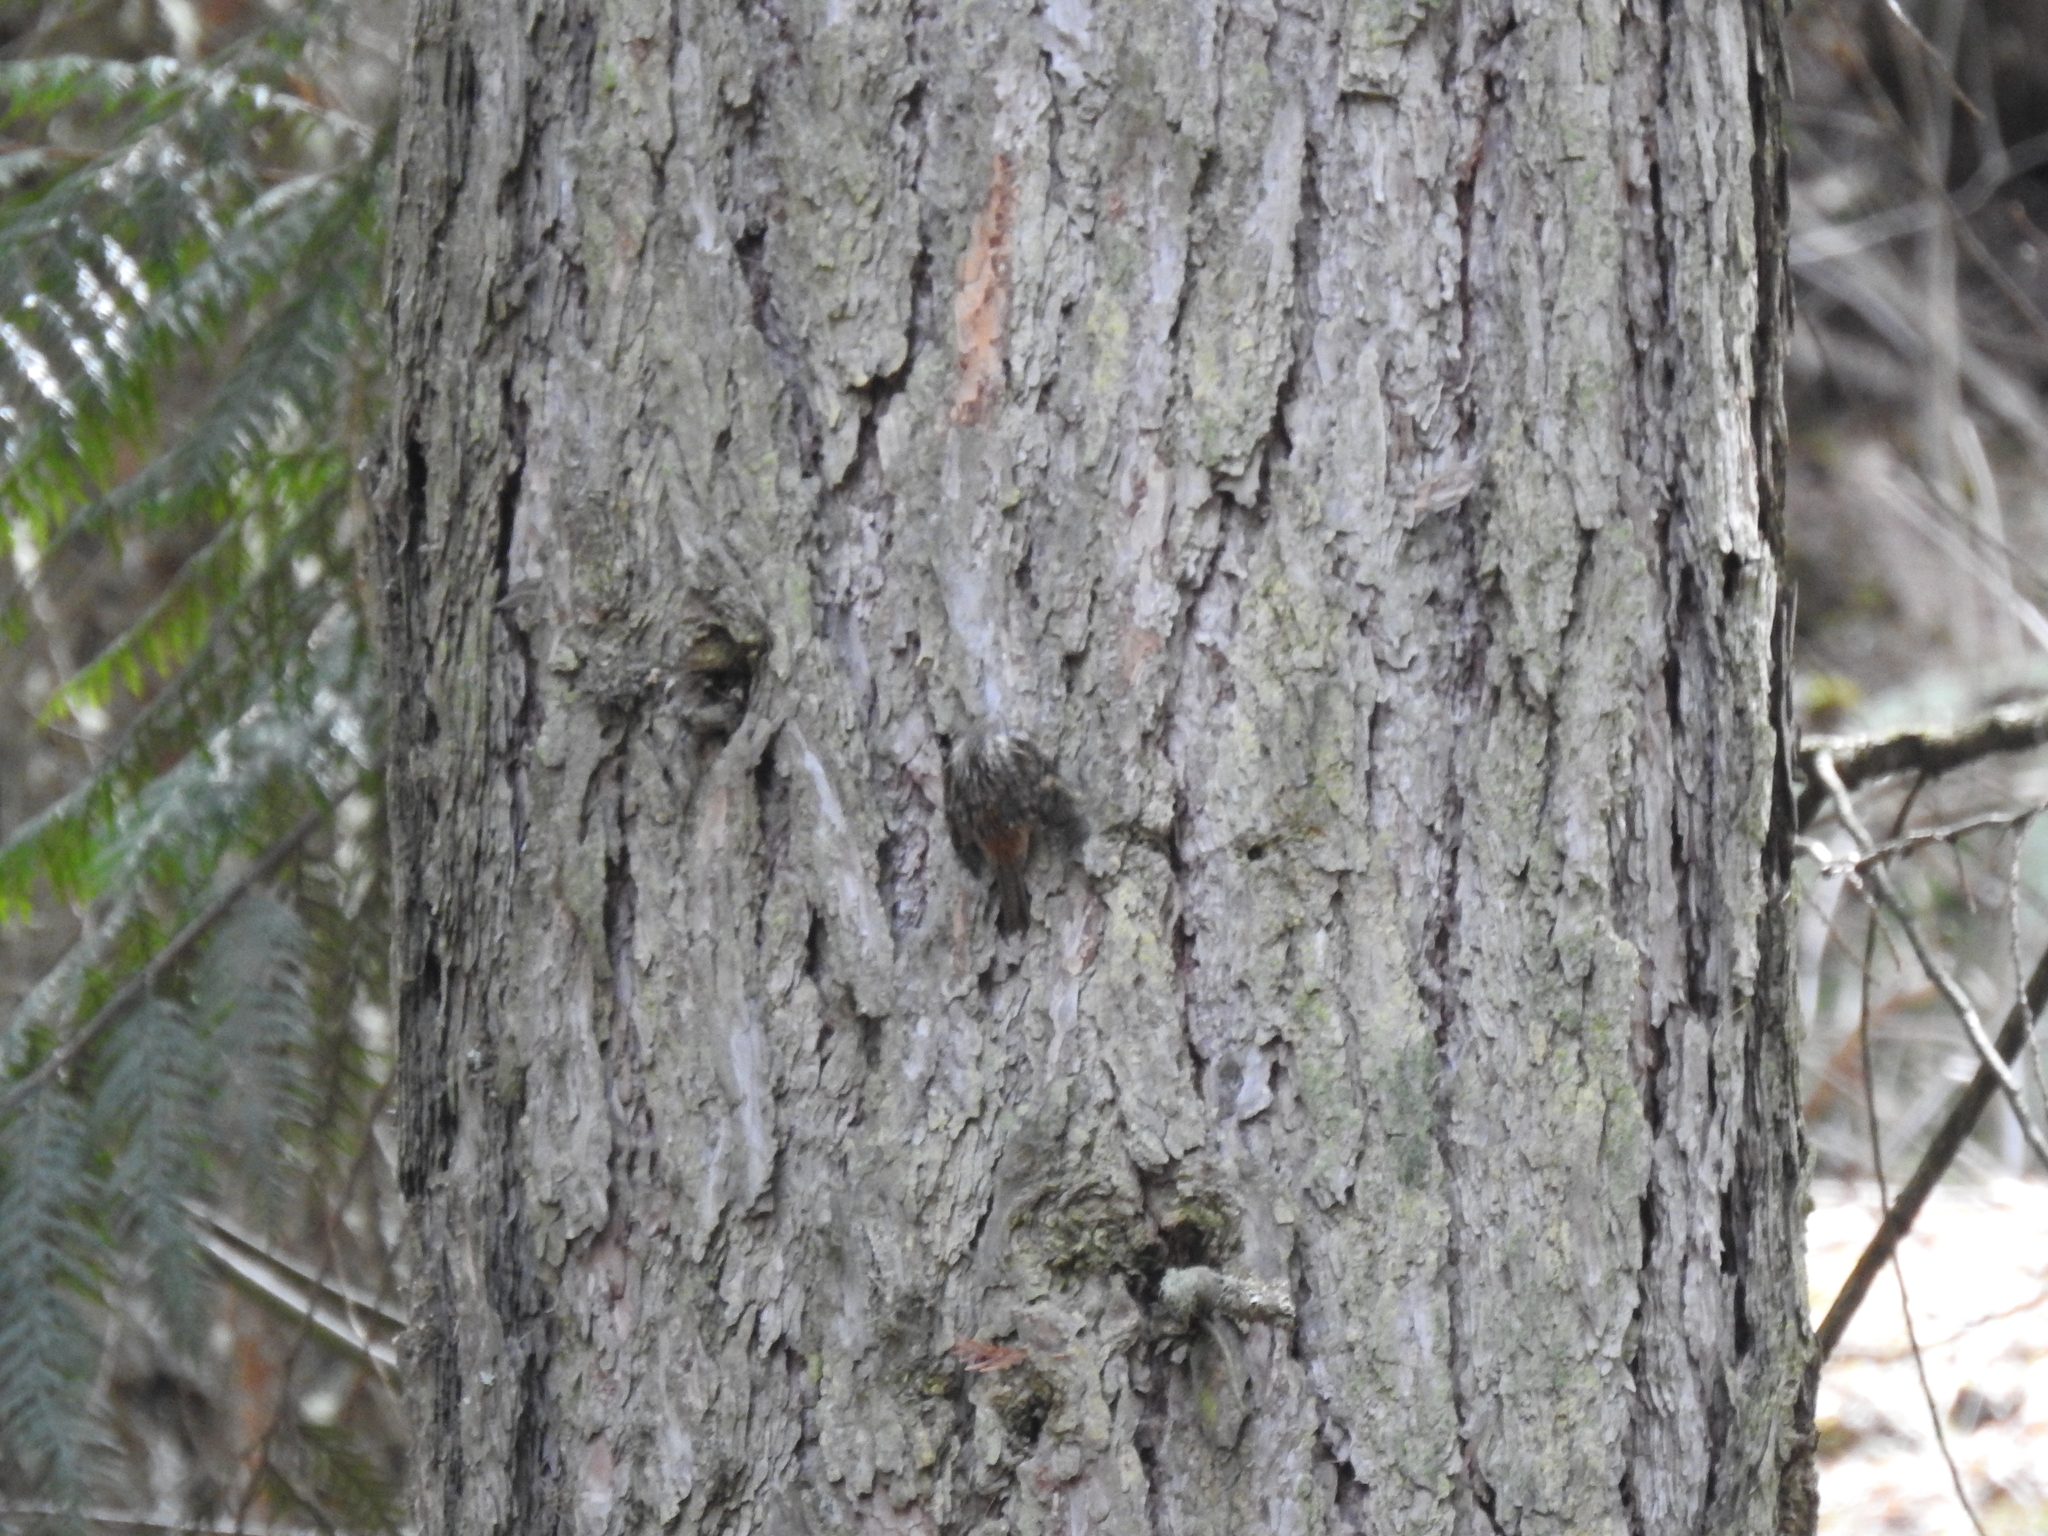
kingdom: Animalia
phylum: Chordata
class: Aves
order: Passeriformes
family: Certhiidae
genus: Certhia
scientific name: Certhia americana
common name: Brown creeper
